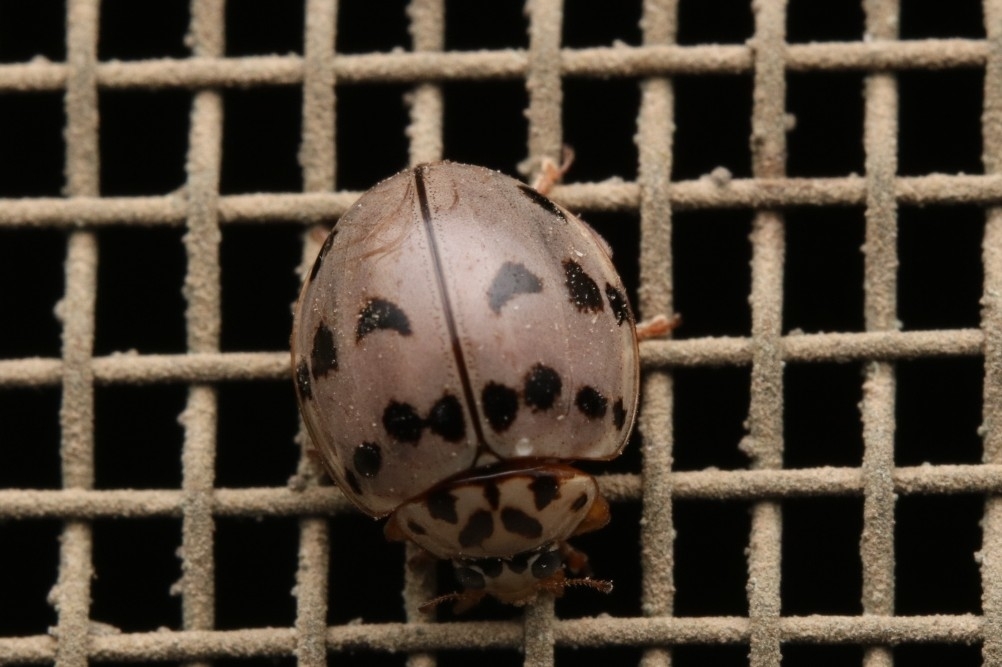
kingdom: Animalia
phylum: Arthropoda
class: Insecta
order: Coleoptera
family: Coccinellidae
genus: Olla
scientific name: Olla v-nigrum
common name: Ashy gray lady beetle
